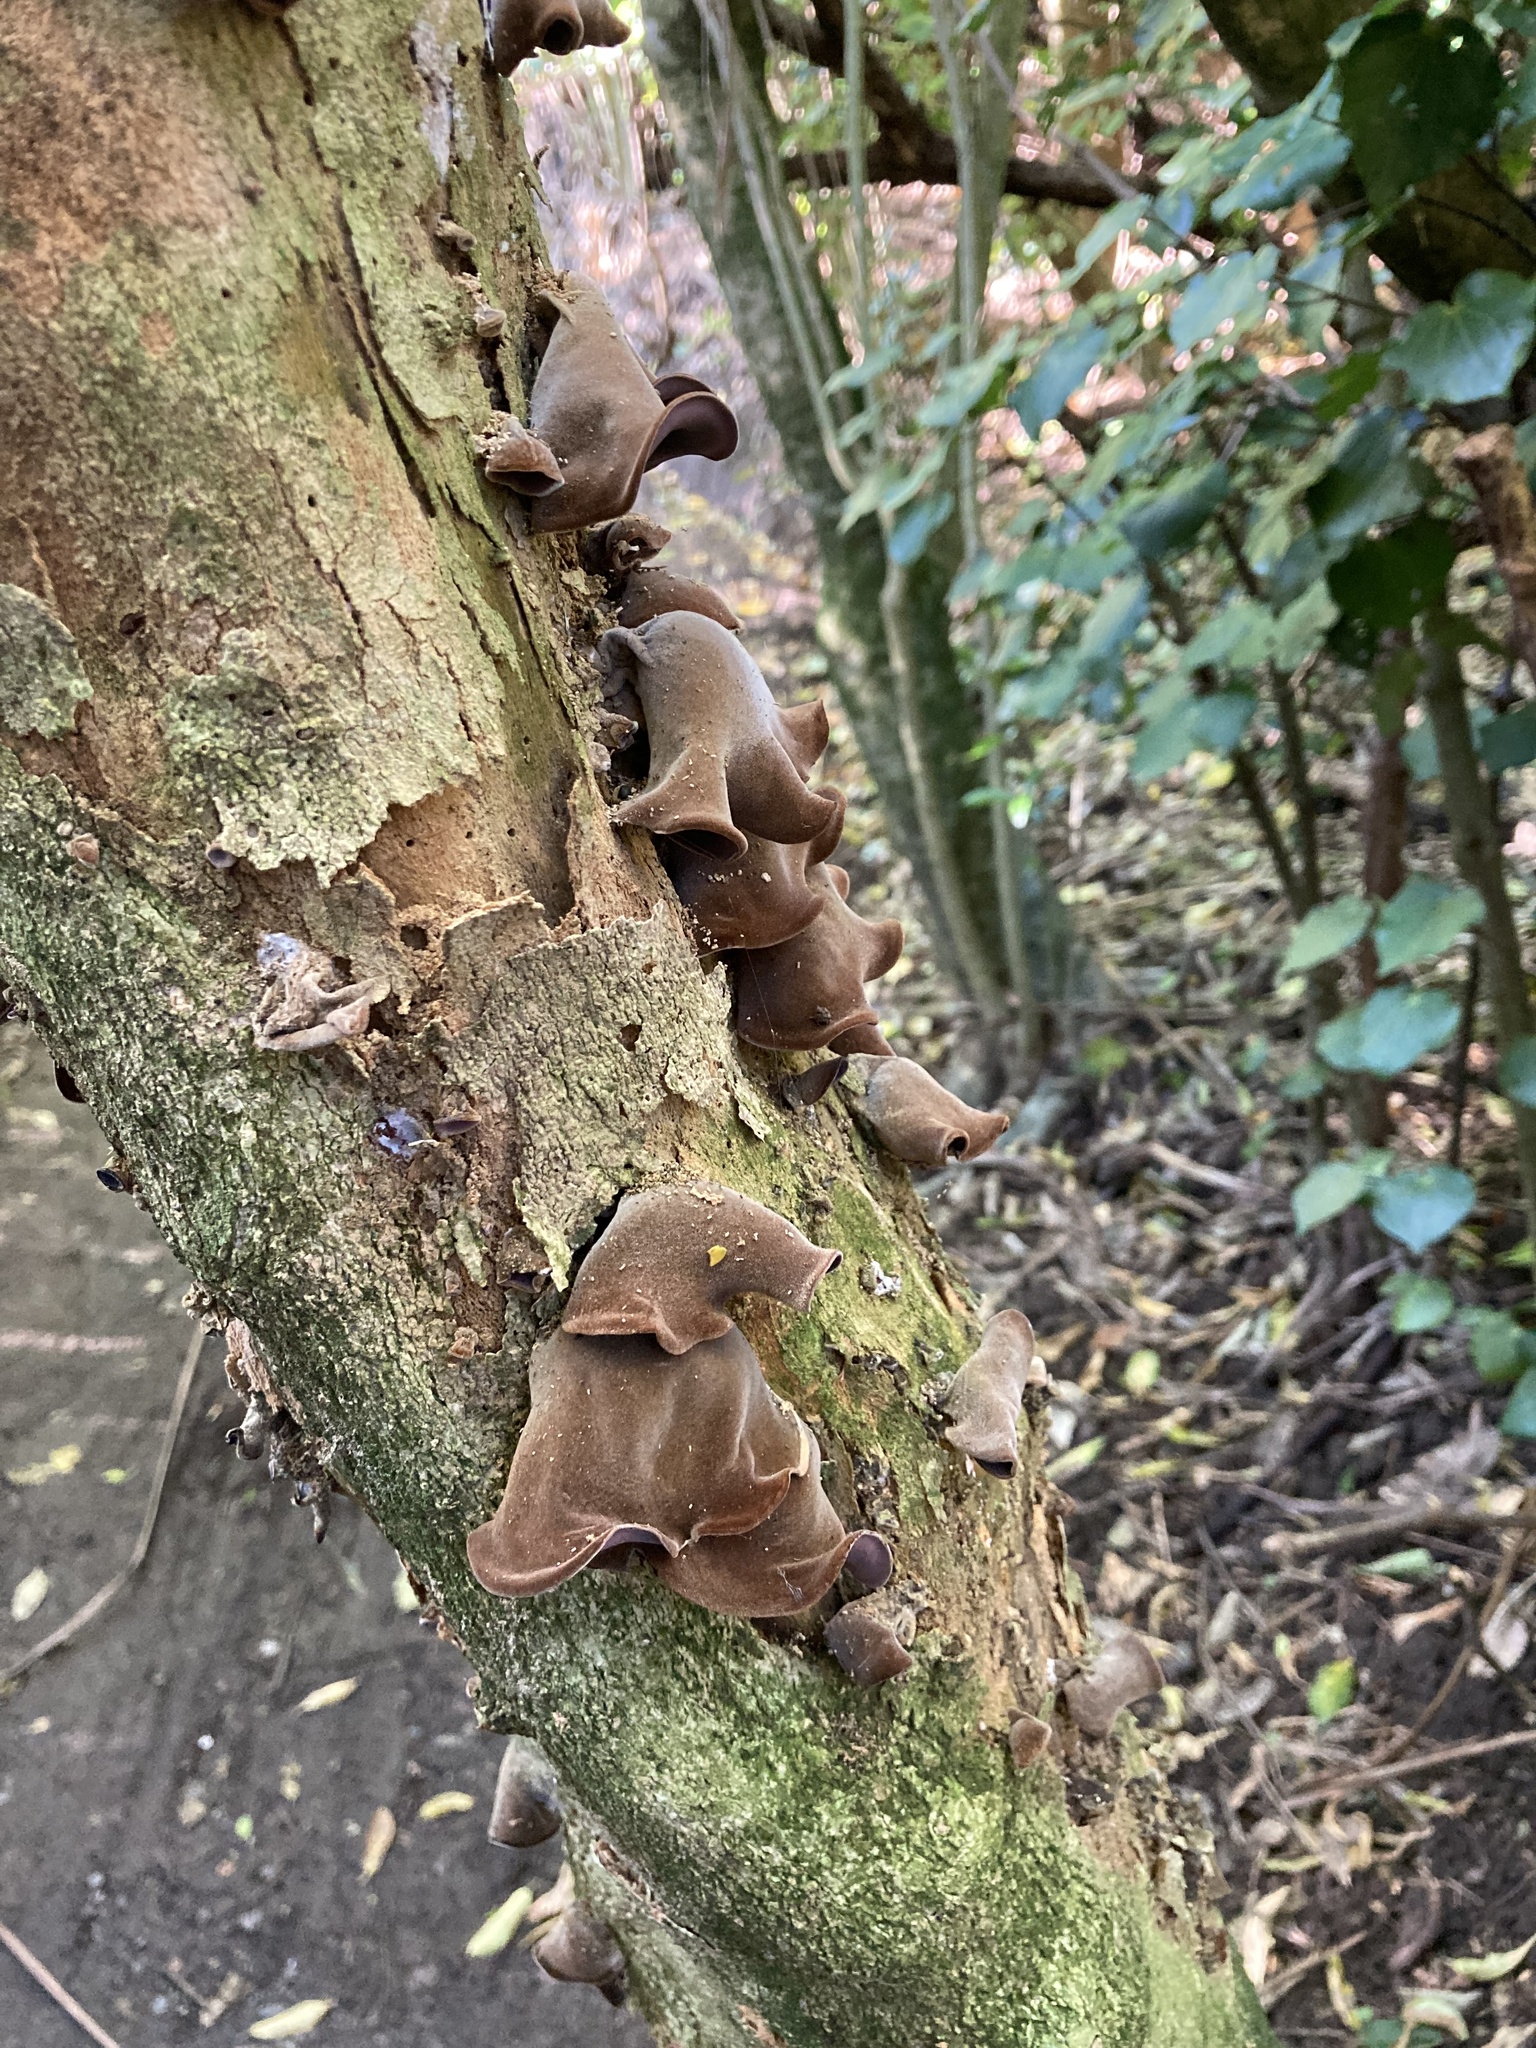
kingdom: Fungi
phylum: Basidiomycota
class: Agaricomycetes
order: Auriculariales
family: Auriculariaceae
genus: Auricularia
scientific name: Auricularia cornea
